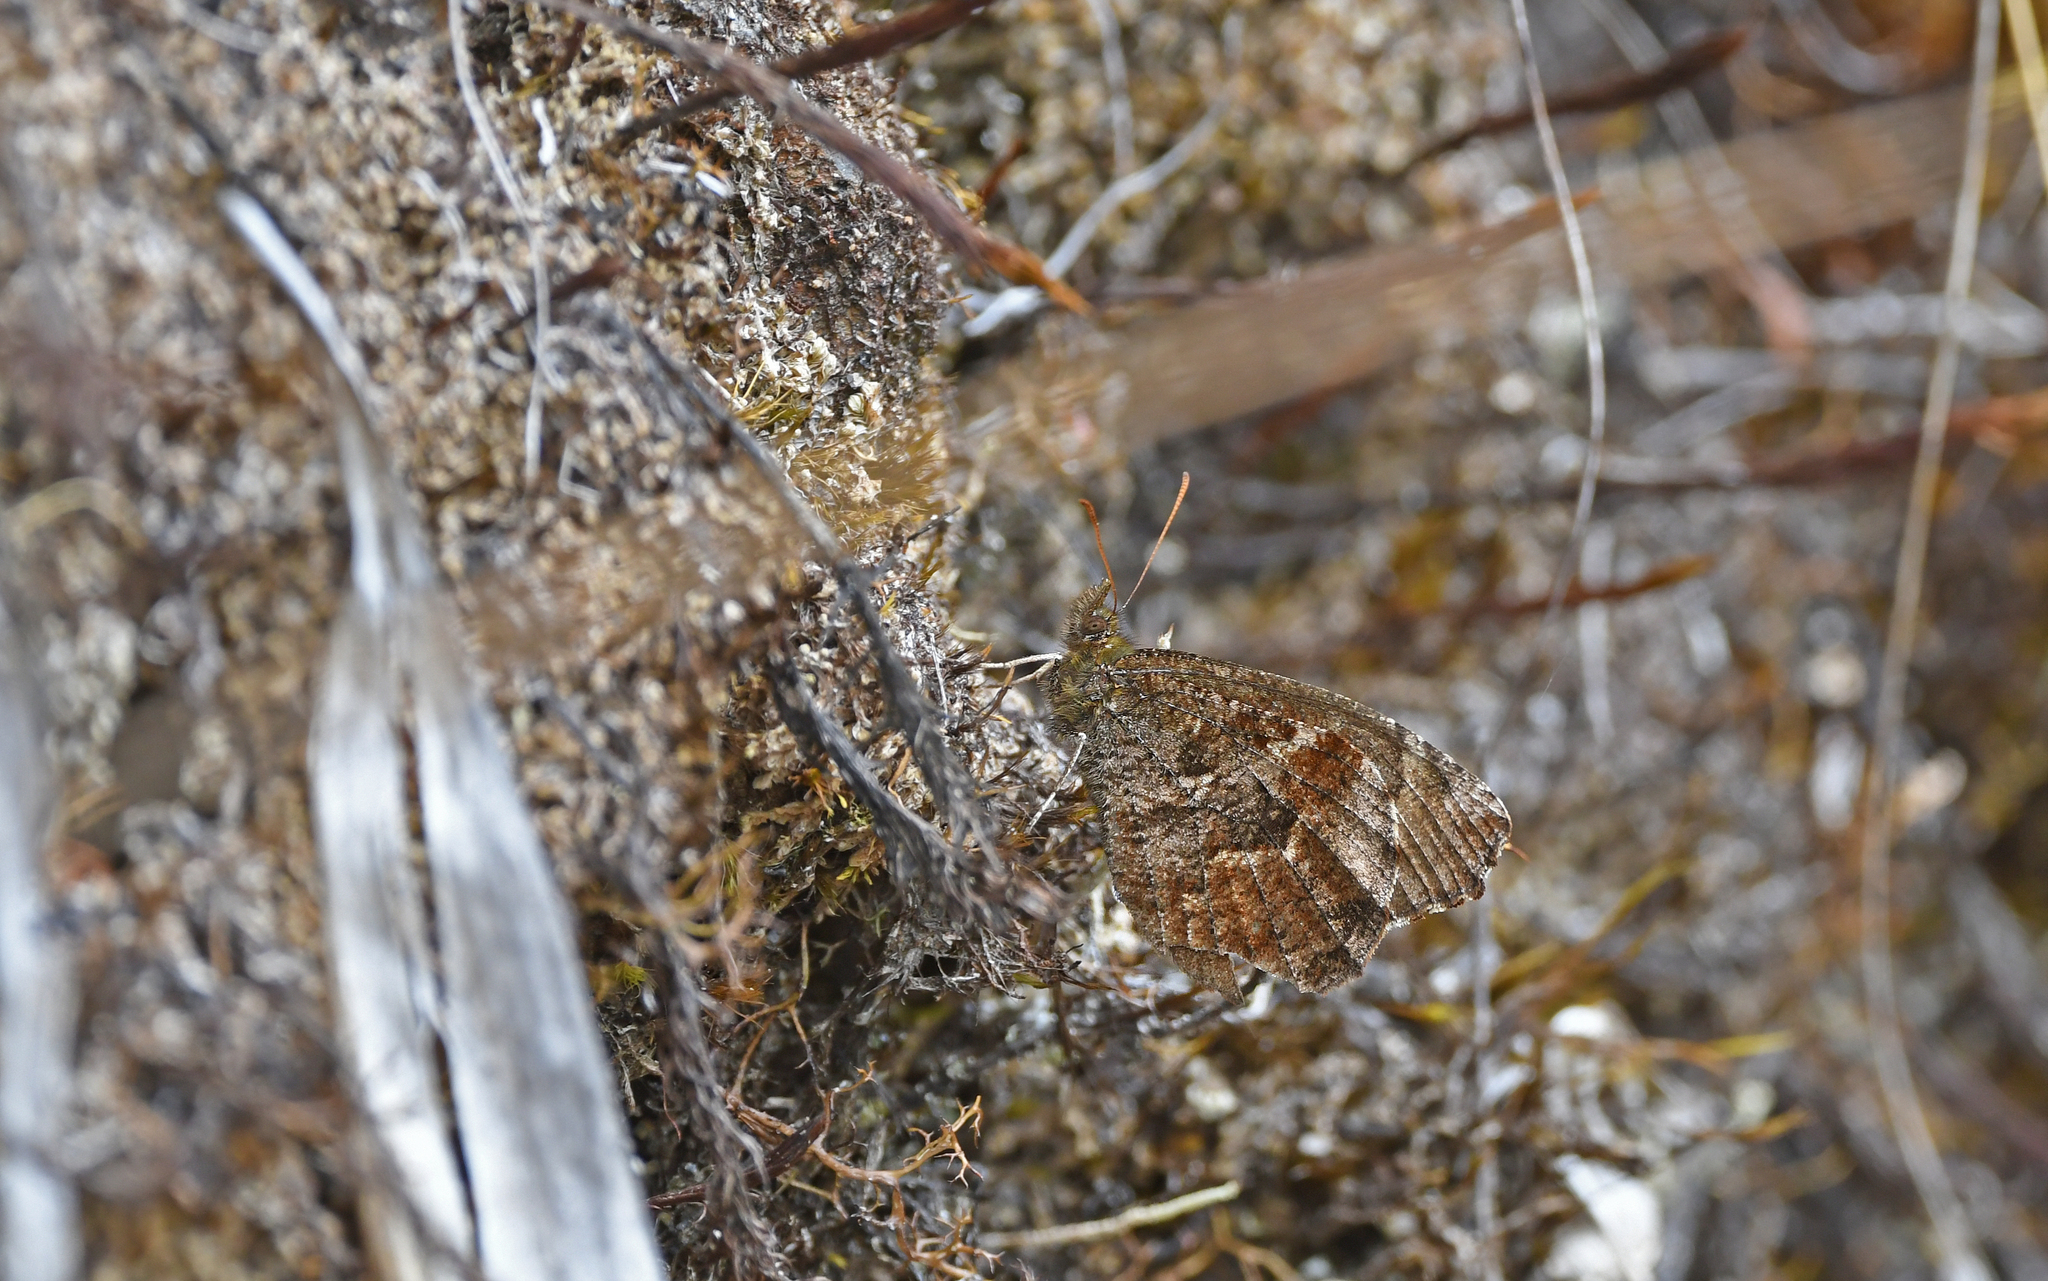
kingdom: Animalia
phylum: Arthropoda
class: Insecta
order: Lepidoptera
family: Nymphalidae
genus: Panyapedaliodes
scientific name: Panyapedaliodes mara
